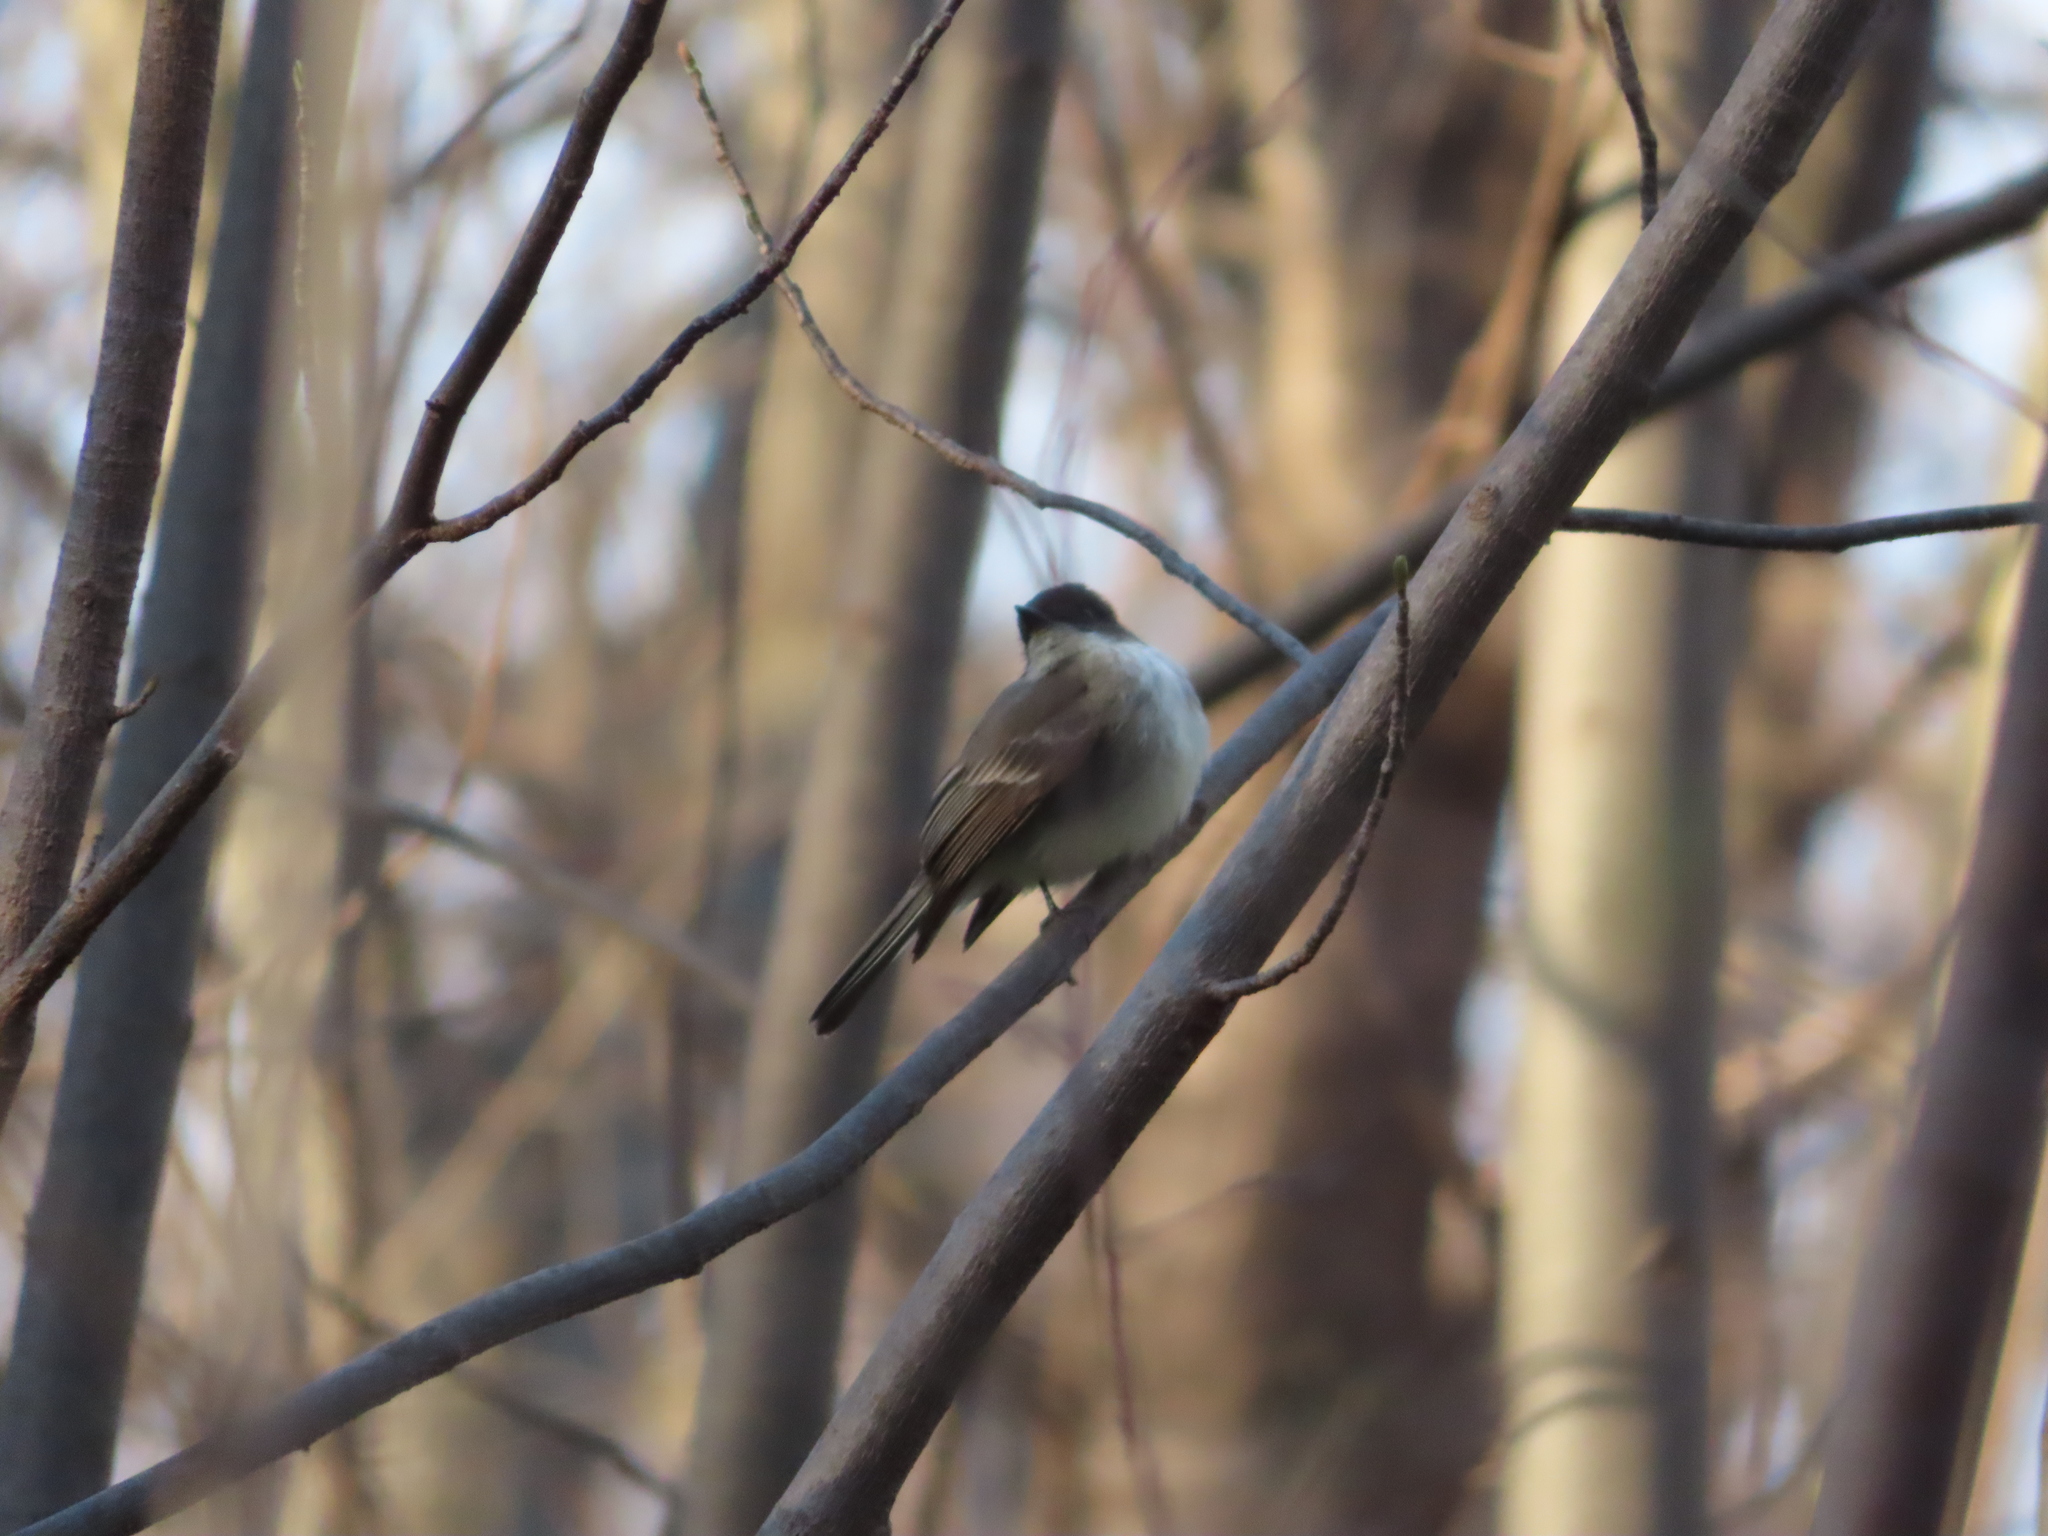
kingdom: Animalia
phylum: Chordata
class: Aves
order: Passeriformes
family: Tyrannidae
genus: Sayornis
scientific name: Sayornis phoebe
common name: Eastern phoebe
